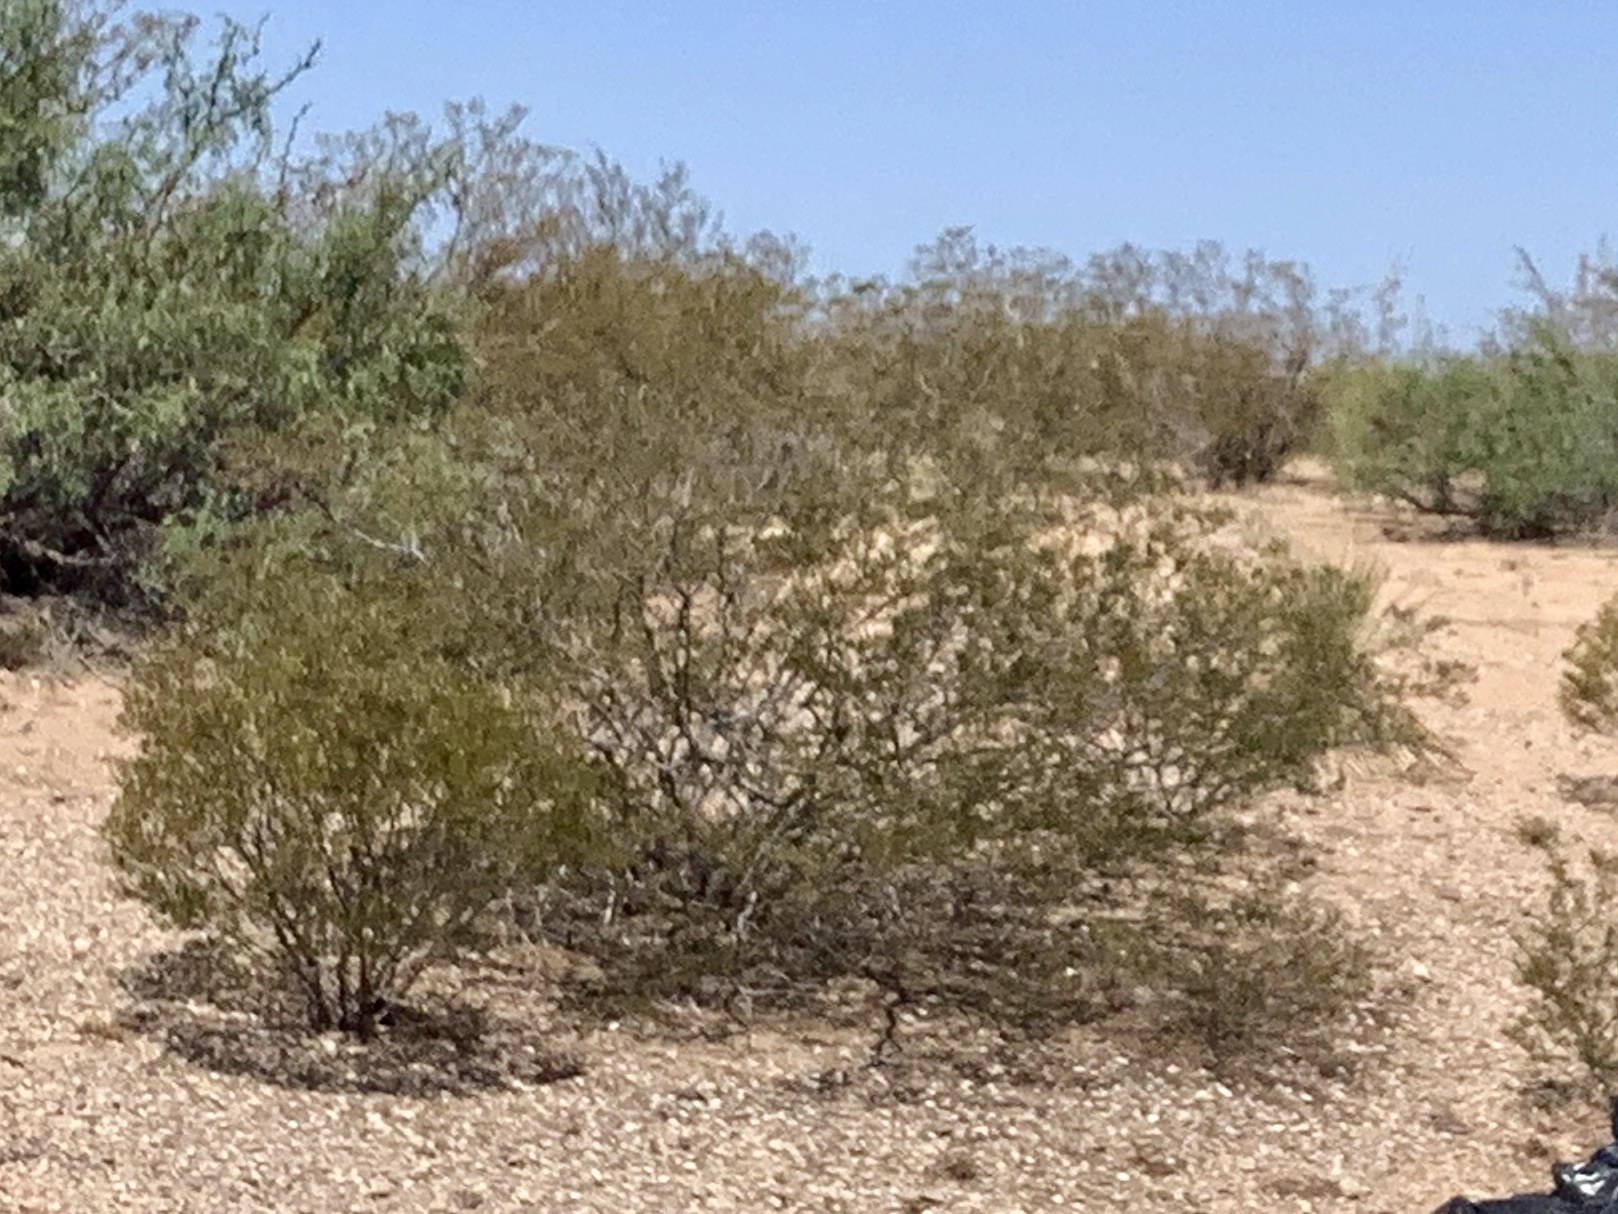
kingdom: Plantae
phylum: Tracheophyta
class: Magnoliopsida
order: Zygophyllales
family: Zygophyllaceae
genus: Larrea
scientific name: Larrea tridentata
